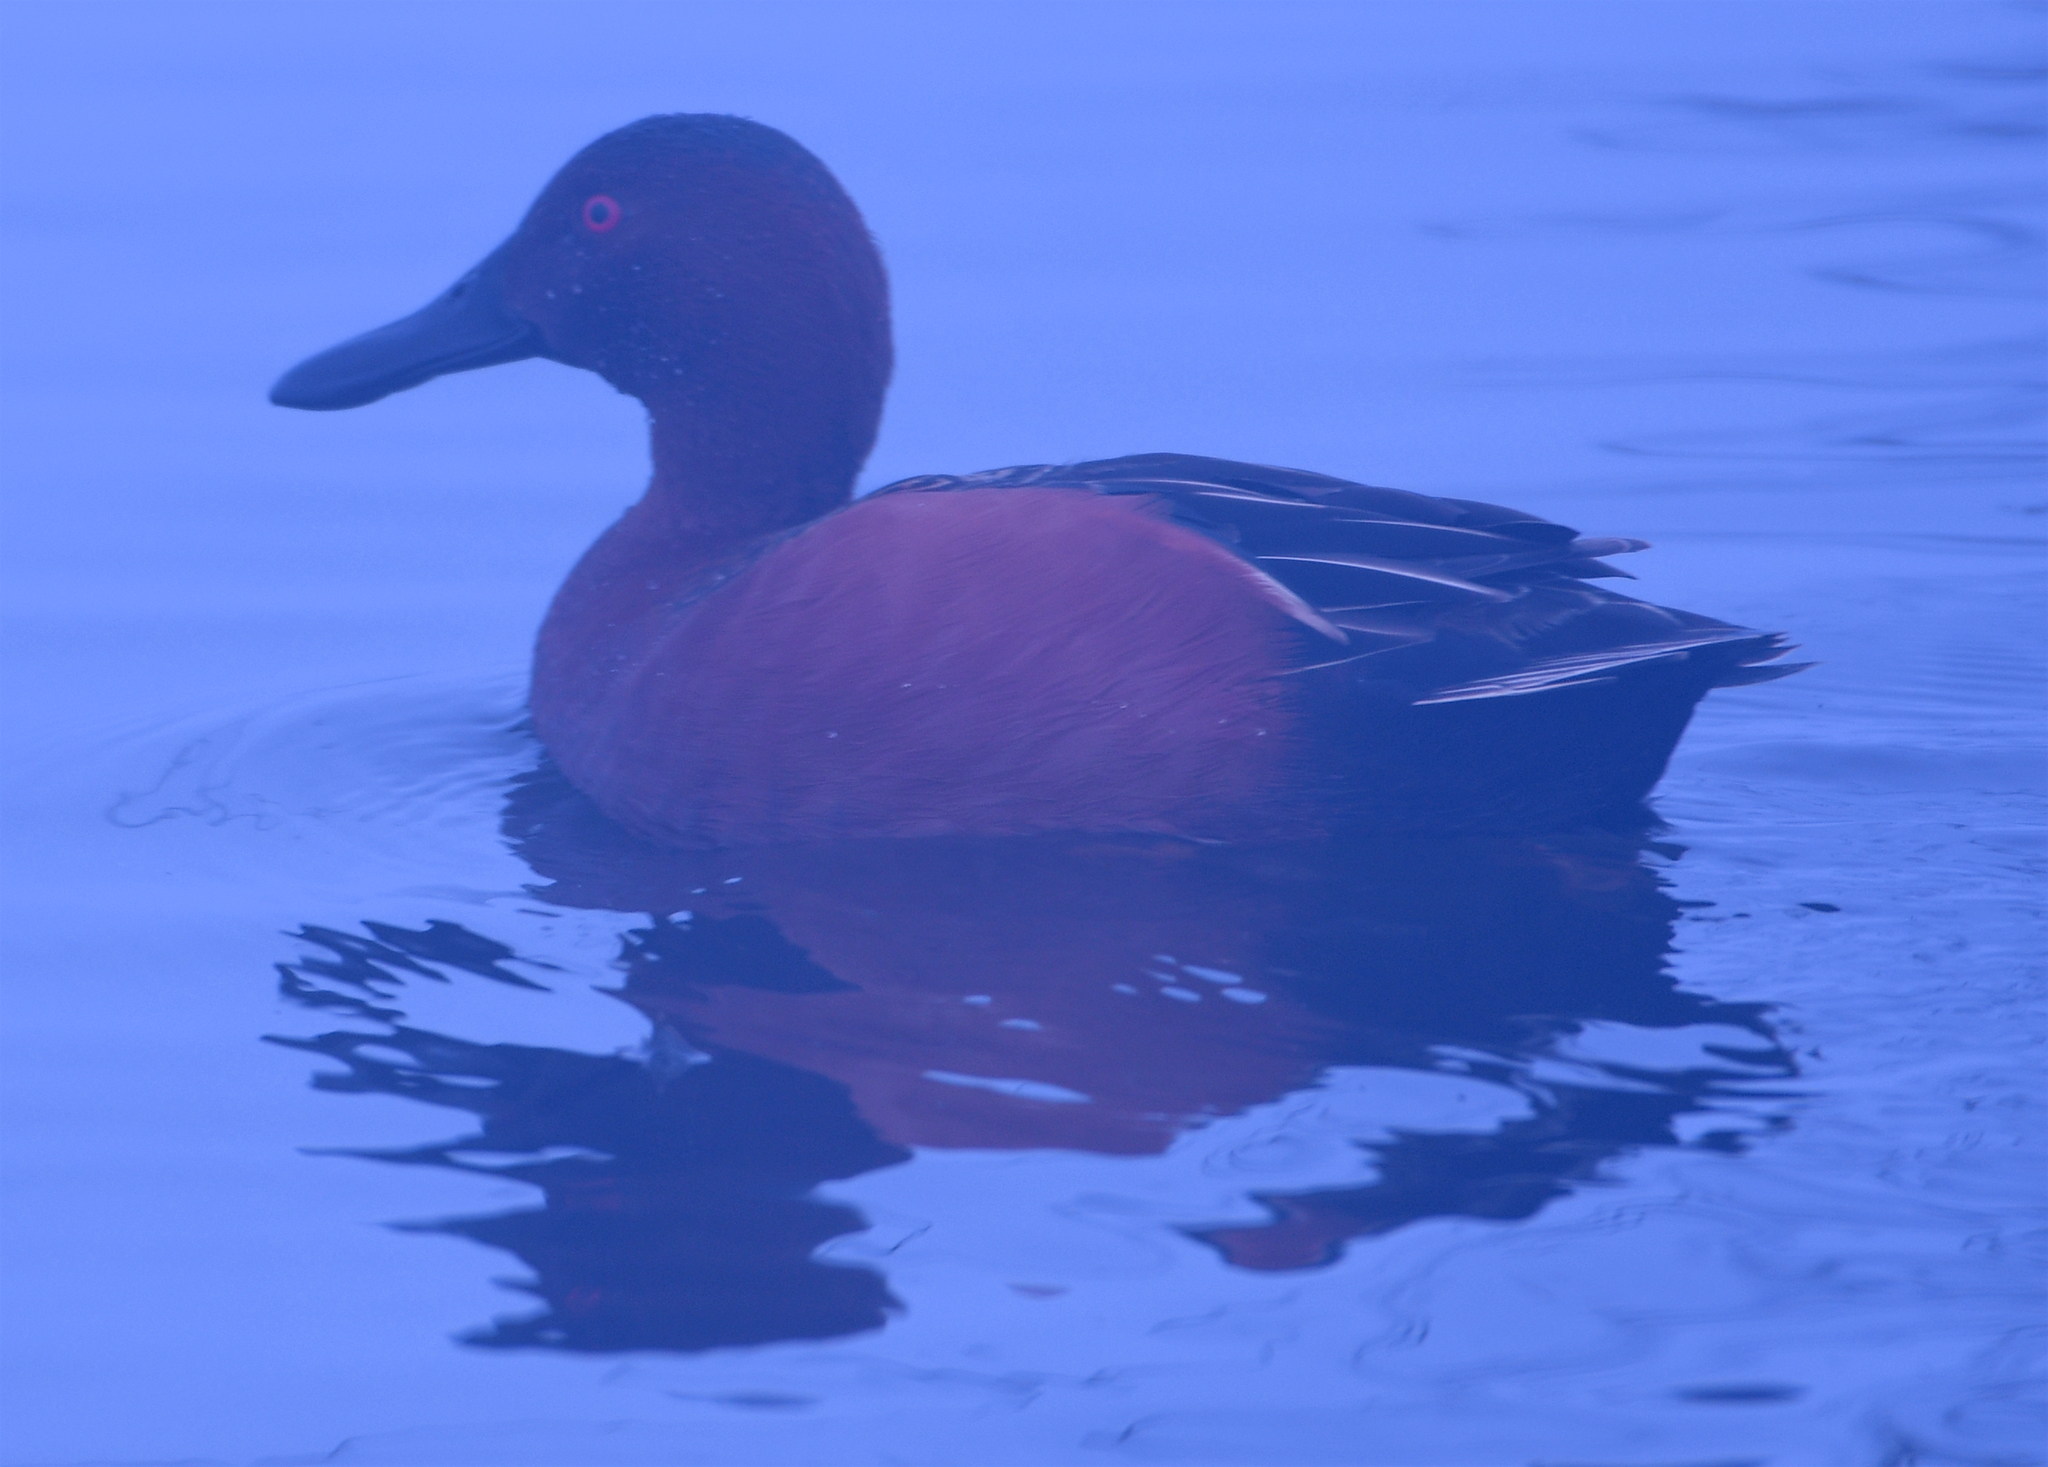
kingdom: Animalia
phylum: Chordata
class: Aves
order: Anseriformes
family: Anatidae
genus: Spatula
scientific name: Spatula cyanoptera
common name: Cinnamon teal
